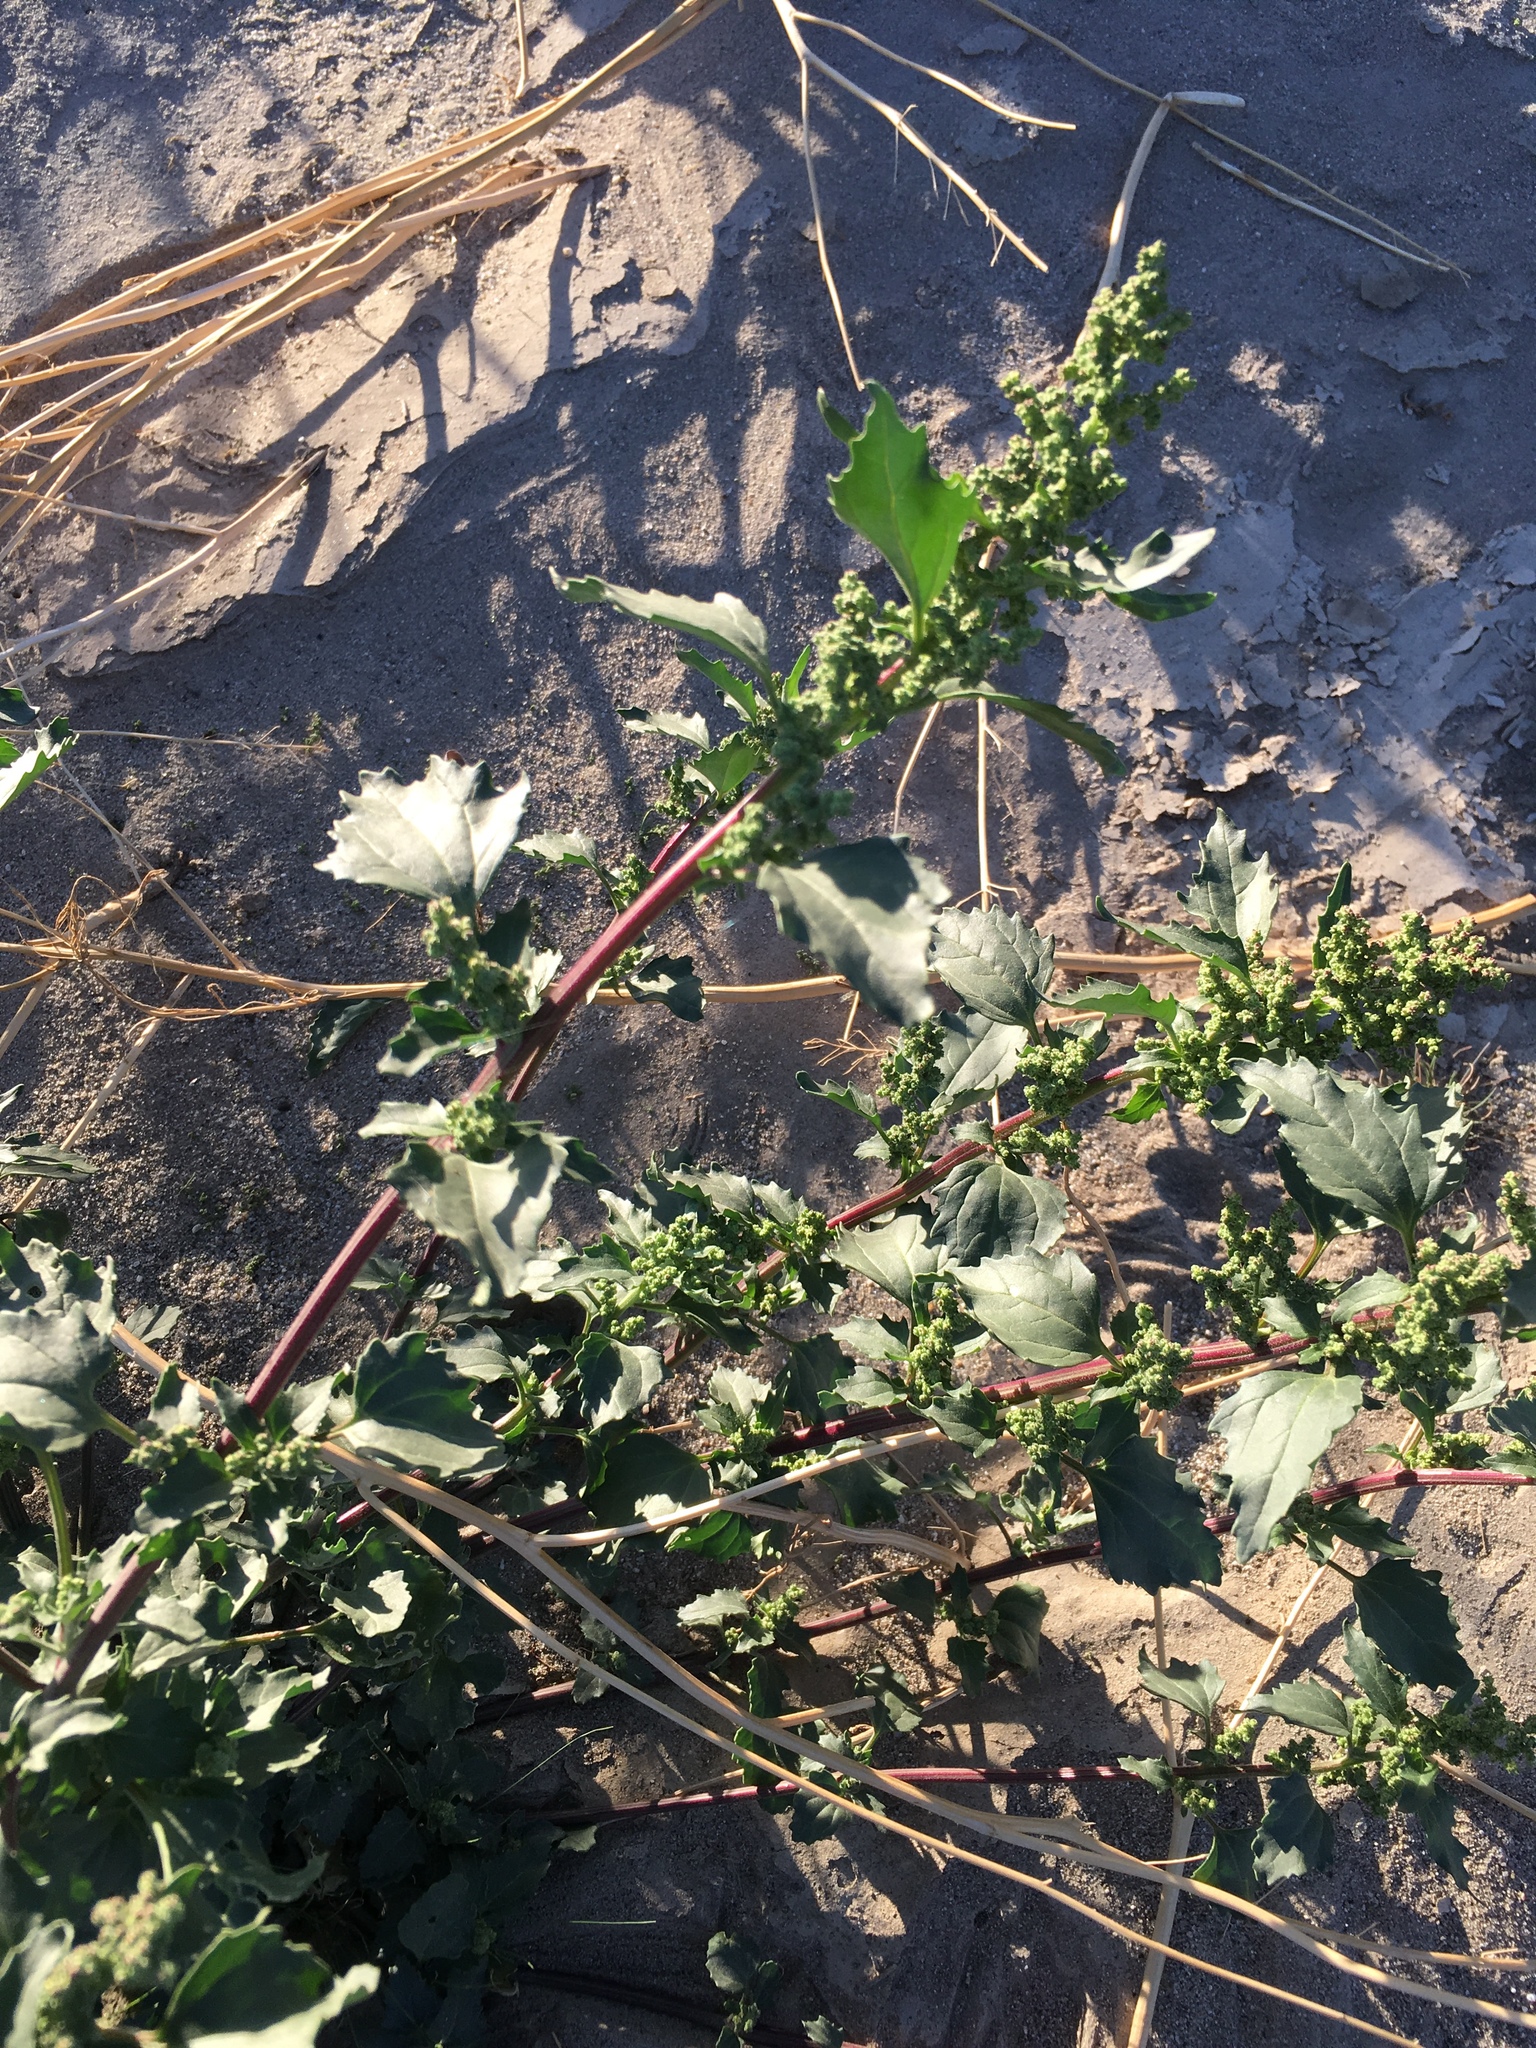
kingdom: Plantae
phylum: Tracheophyta
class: Magnoliopsida
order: Caryophyllales
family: Amaranthaceae
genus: Chenopodiastrum
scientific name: Chenopodiastrum murale
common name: Sowbane
